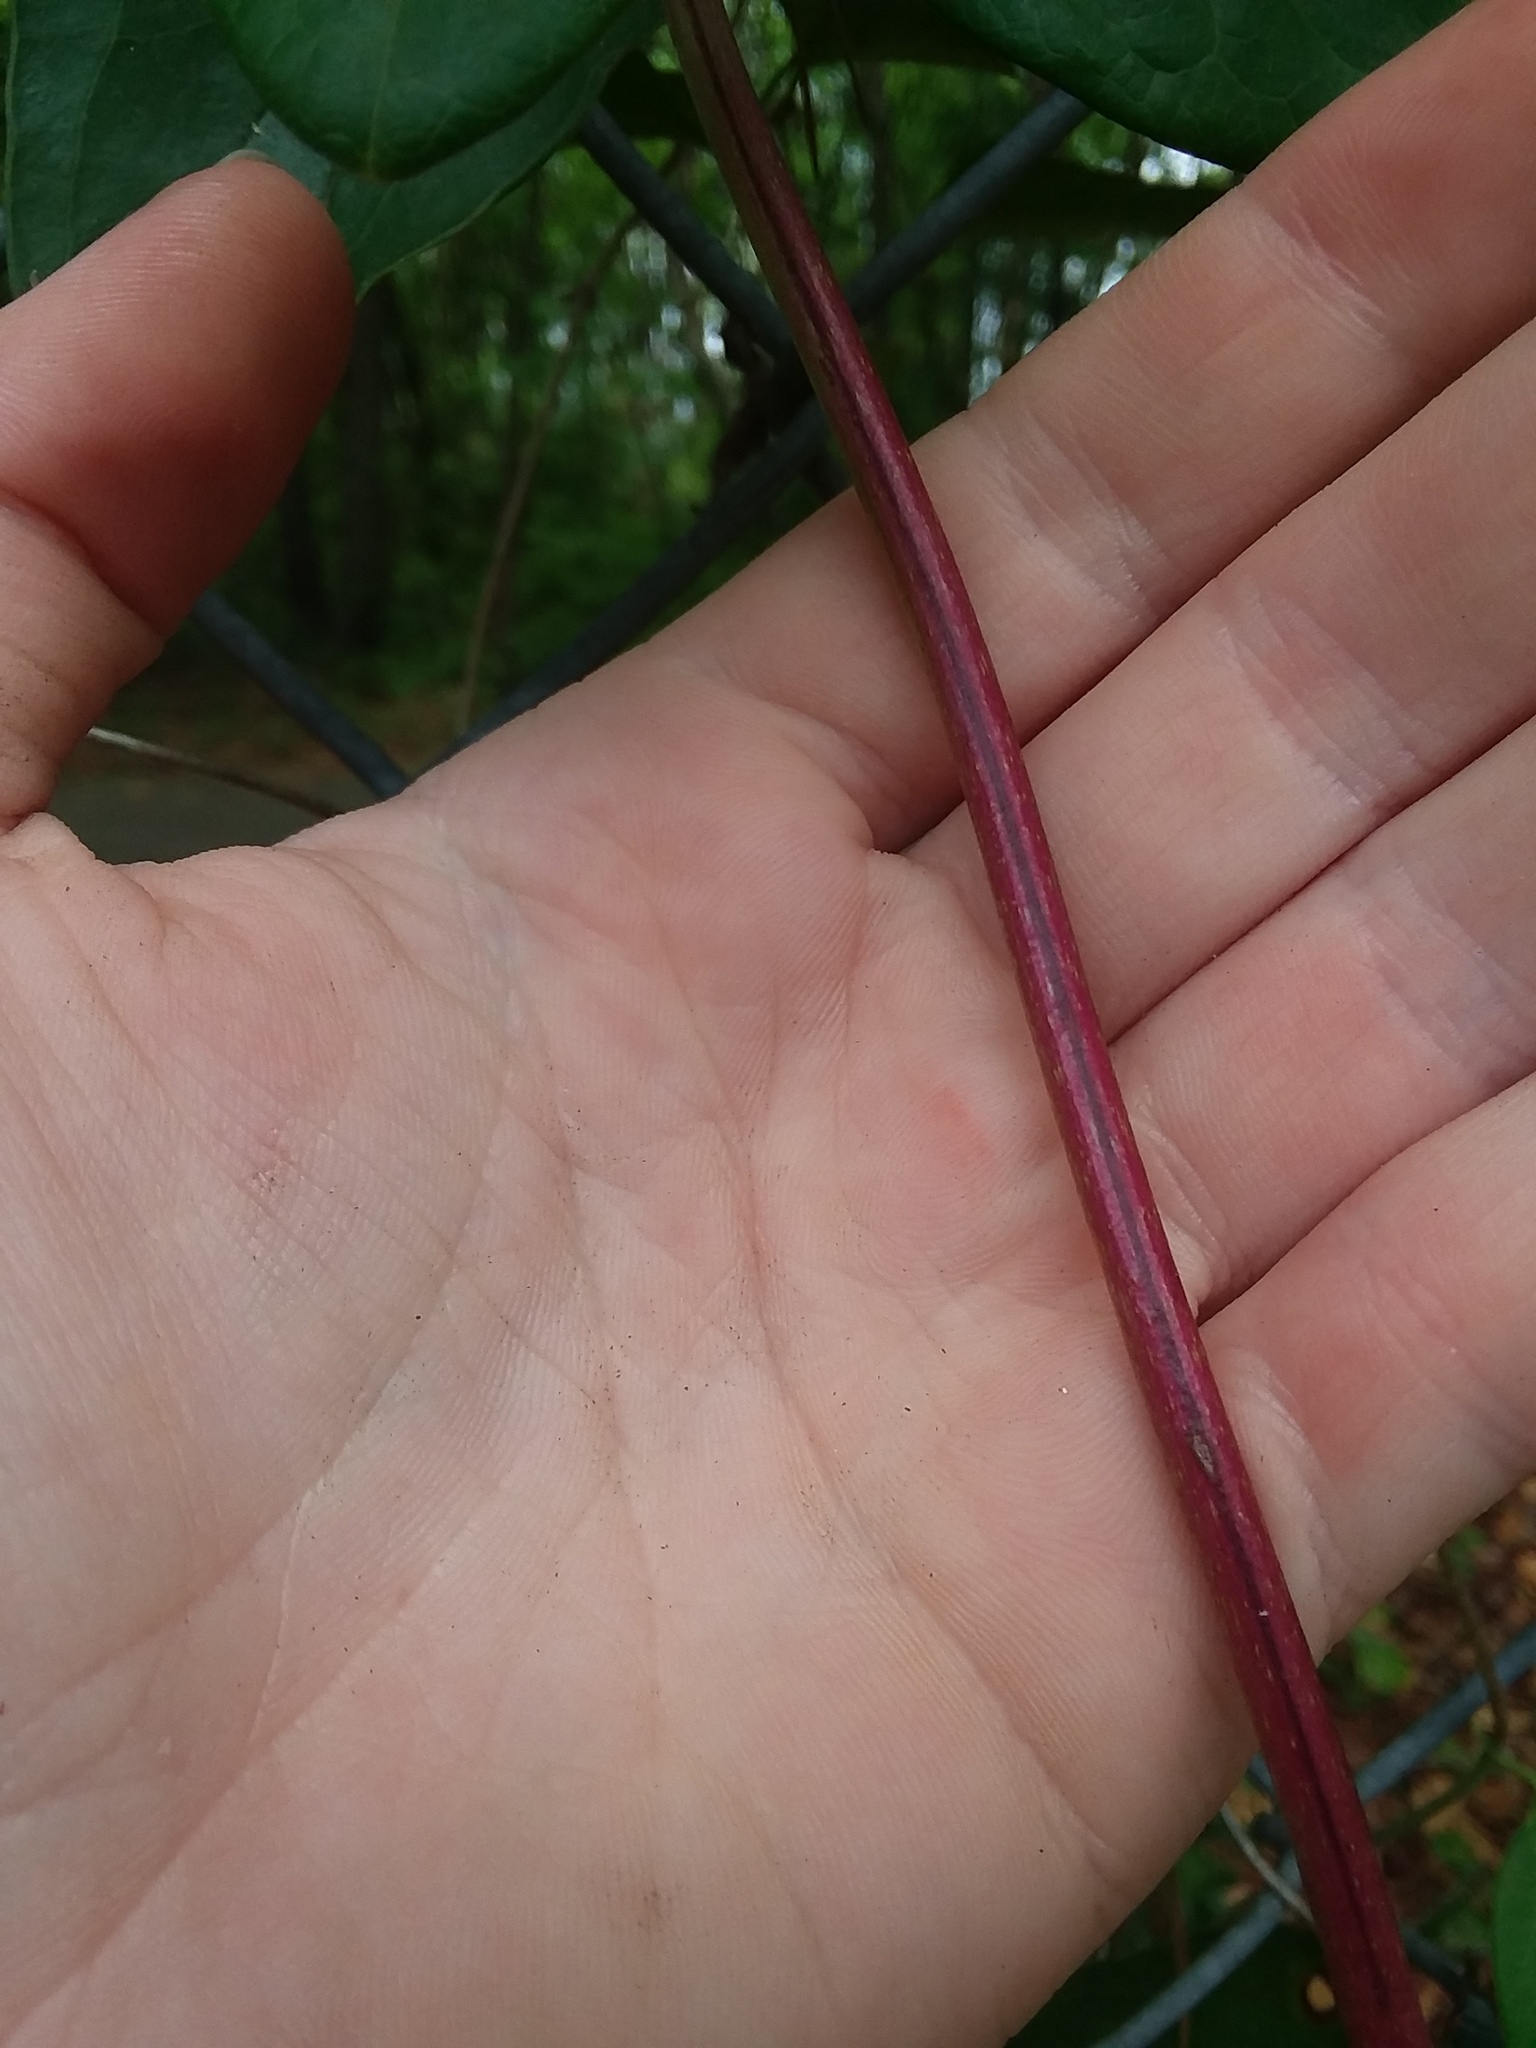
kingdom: Plantae
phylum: Tracheophyta
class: Magnoliopsida
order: Dipsacales
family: Caprifoliaceae
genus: Lonicera
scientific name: Lonicera sempervirens
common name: Coral honeysuckle
